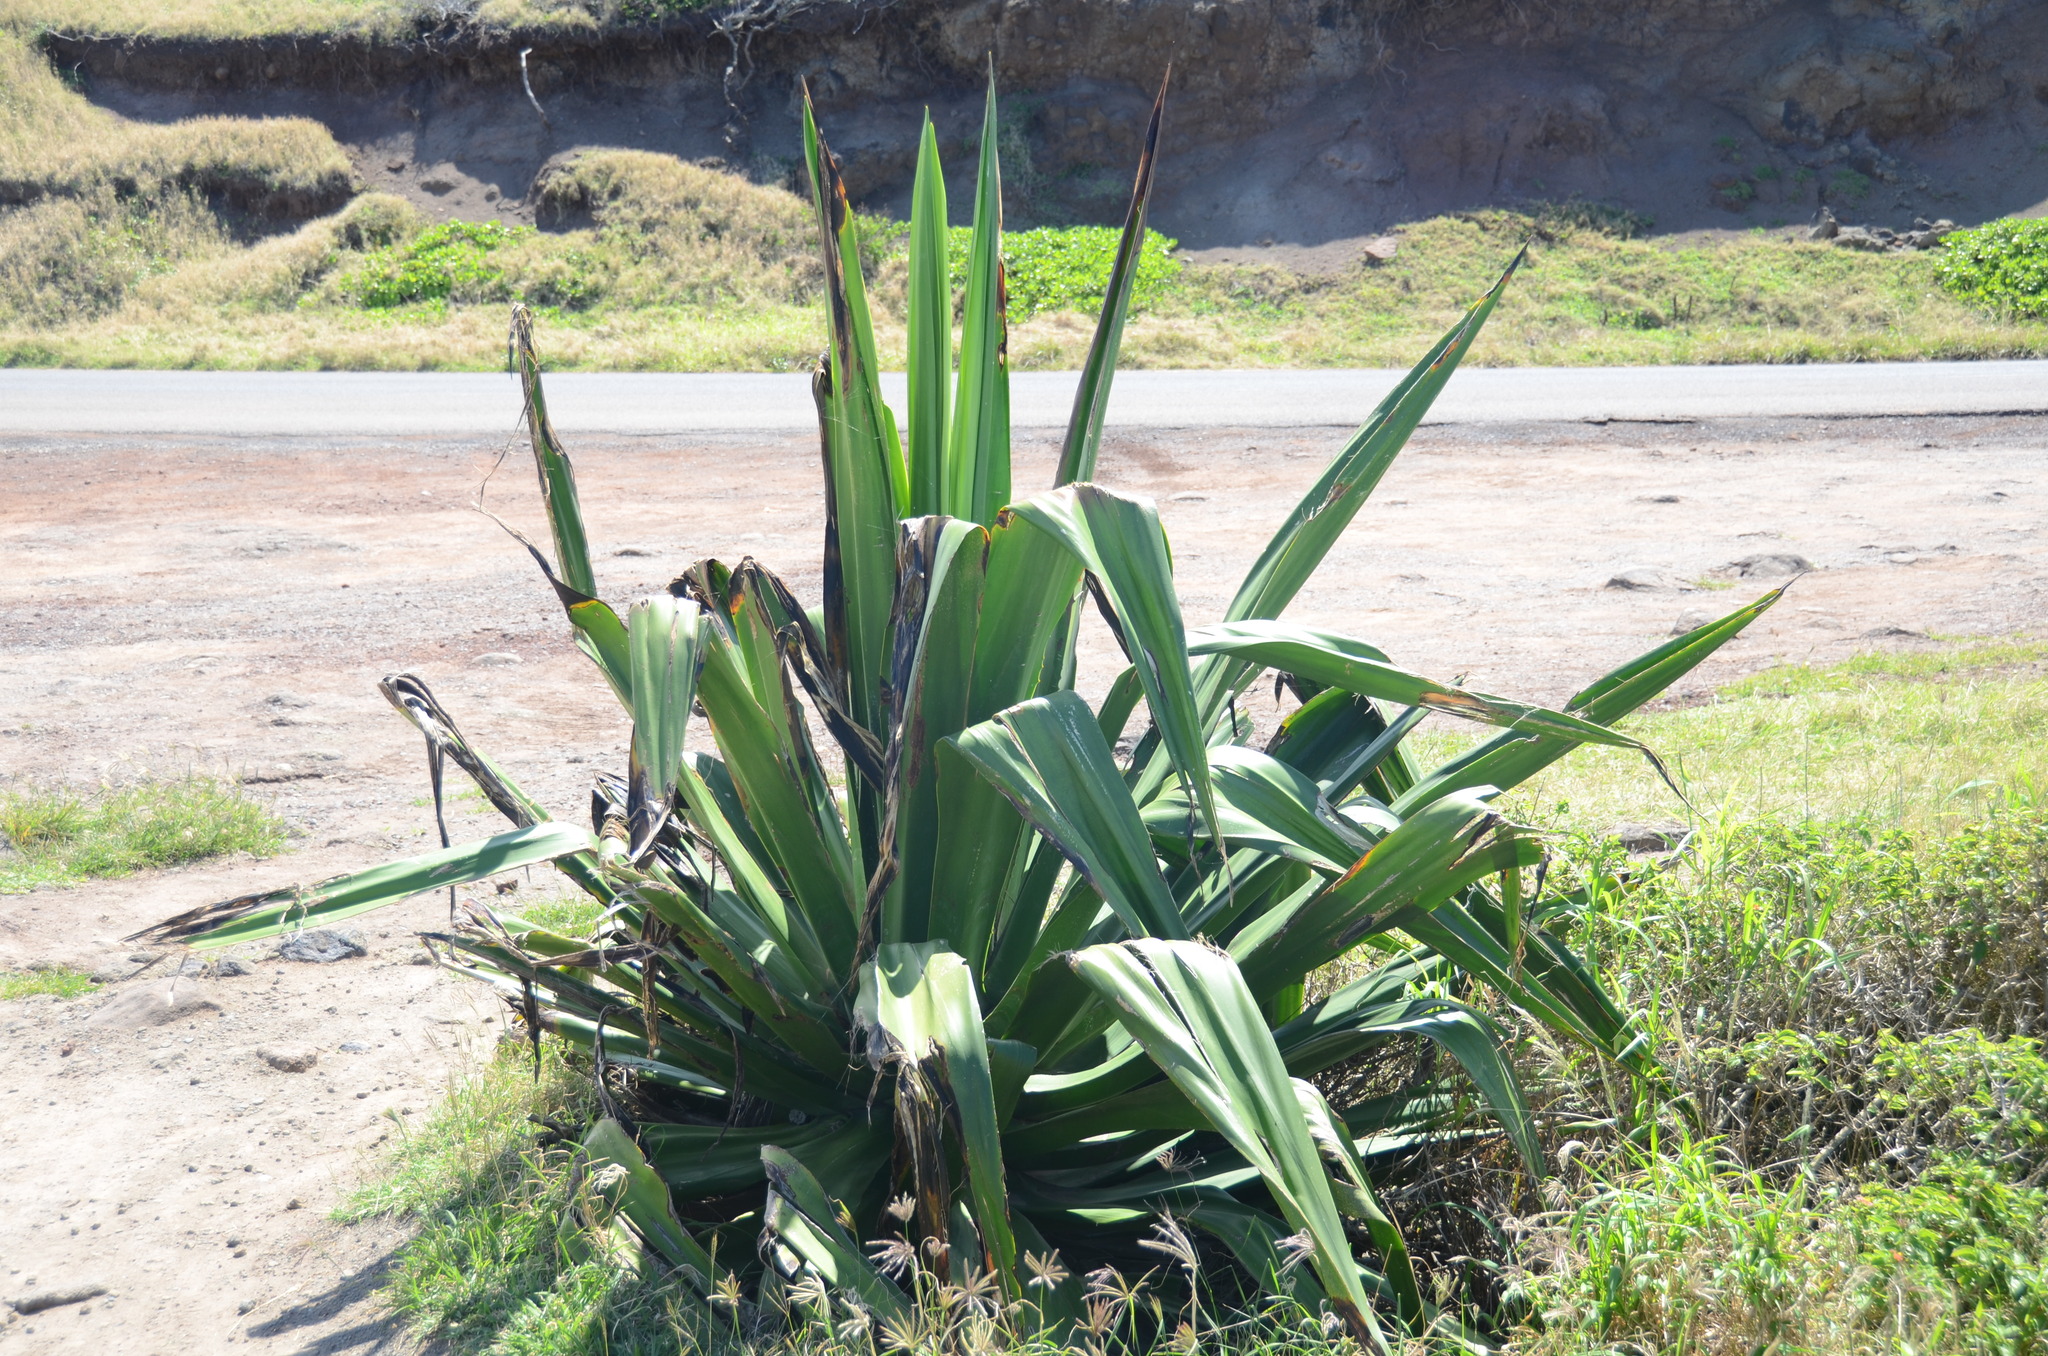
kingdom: Plantae
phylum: Tracheophyta
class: Liliopsida
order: Asparagales
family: Asparagaceae
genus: Furcraea
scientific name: Furcraea foetida
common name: Mauritius hemp
